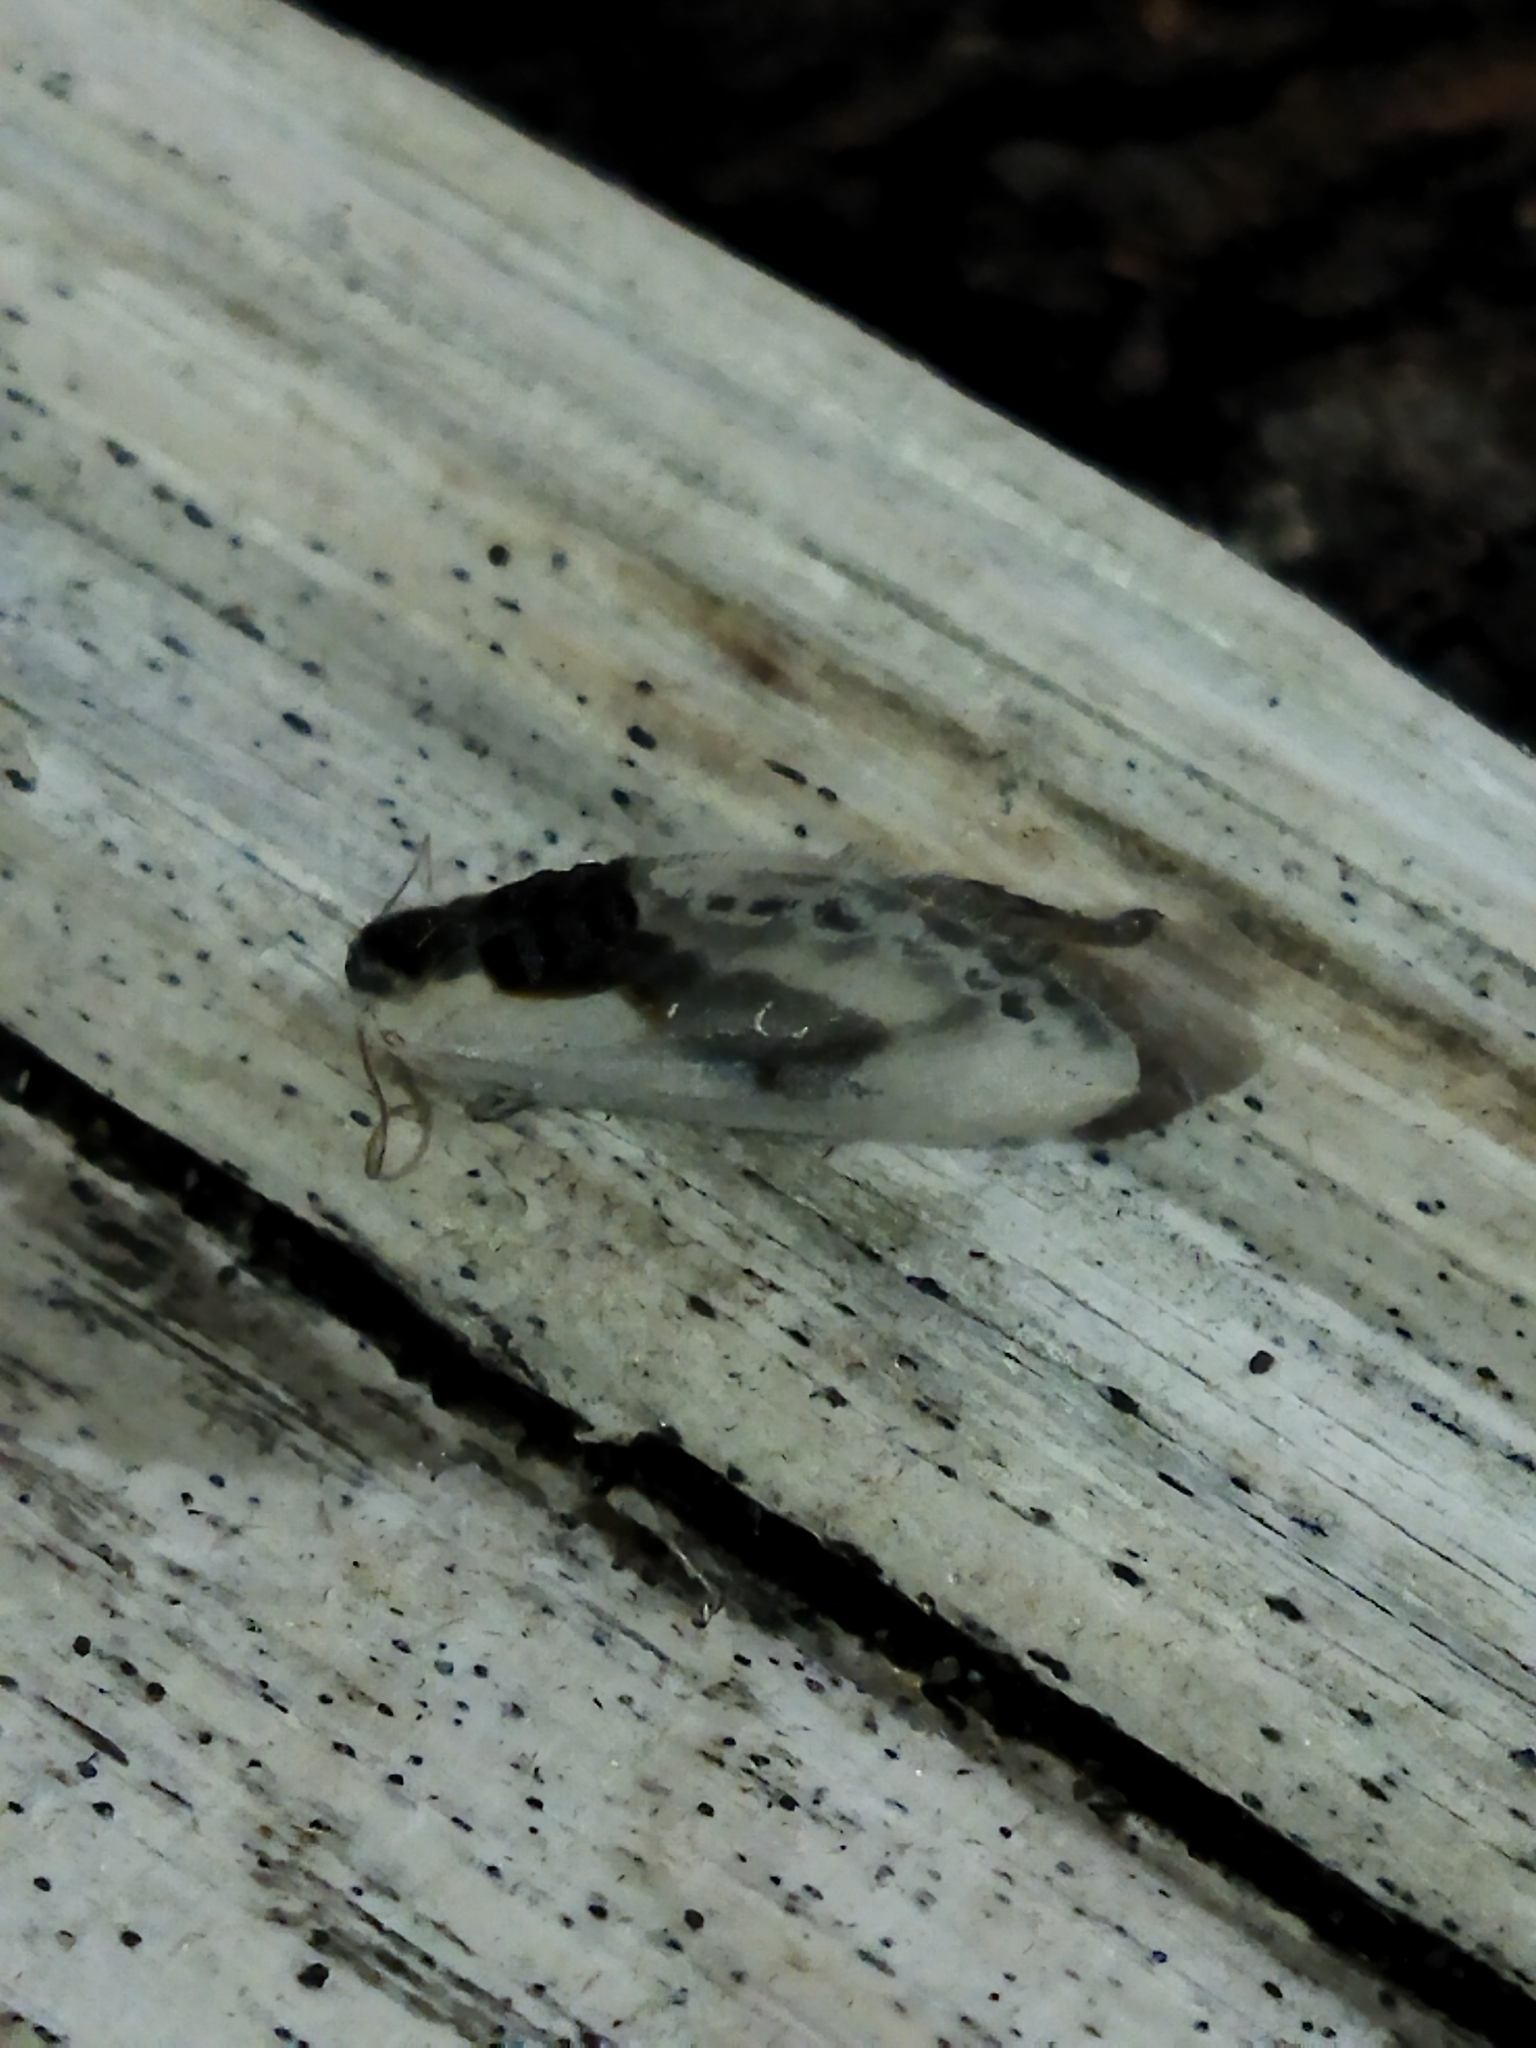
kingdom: Animalia
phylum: Arthropoda
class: Insecta
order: Lepidoptera
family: Drepanidae
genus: Cilix
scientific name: Cilix glaucata
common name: Chinese character
